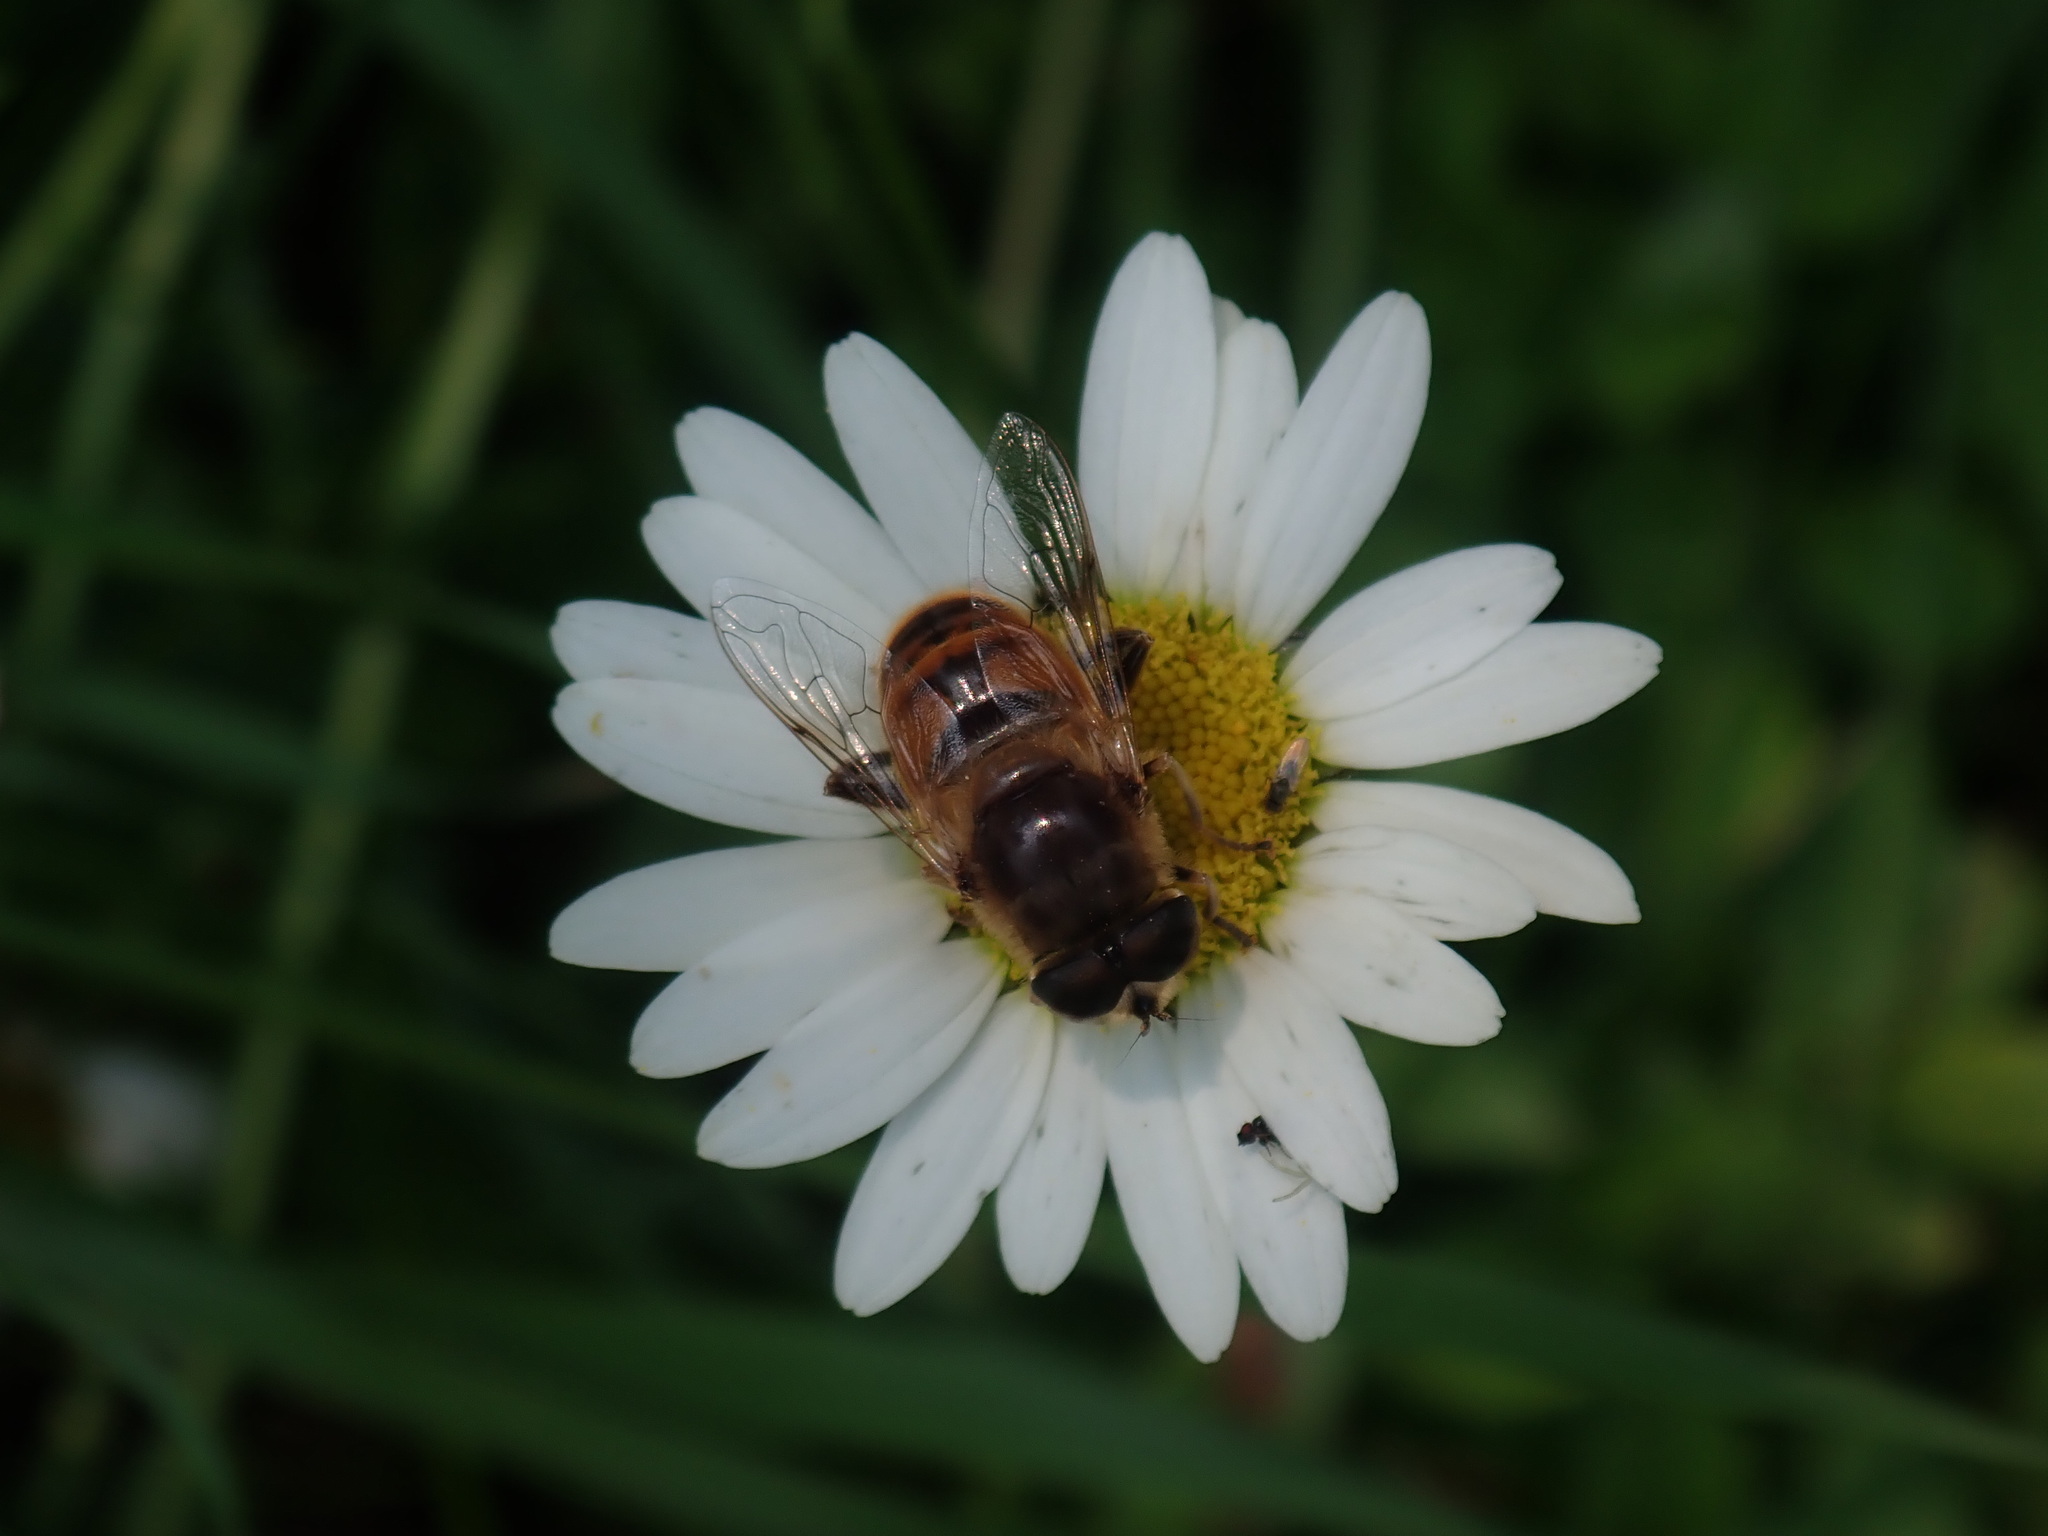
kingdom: Animalia
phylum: Arthropoda
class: Insecta
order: Diptera
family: Syrphidae
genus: Eristalis
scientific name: Eristalis tenax
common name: Drone fly
